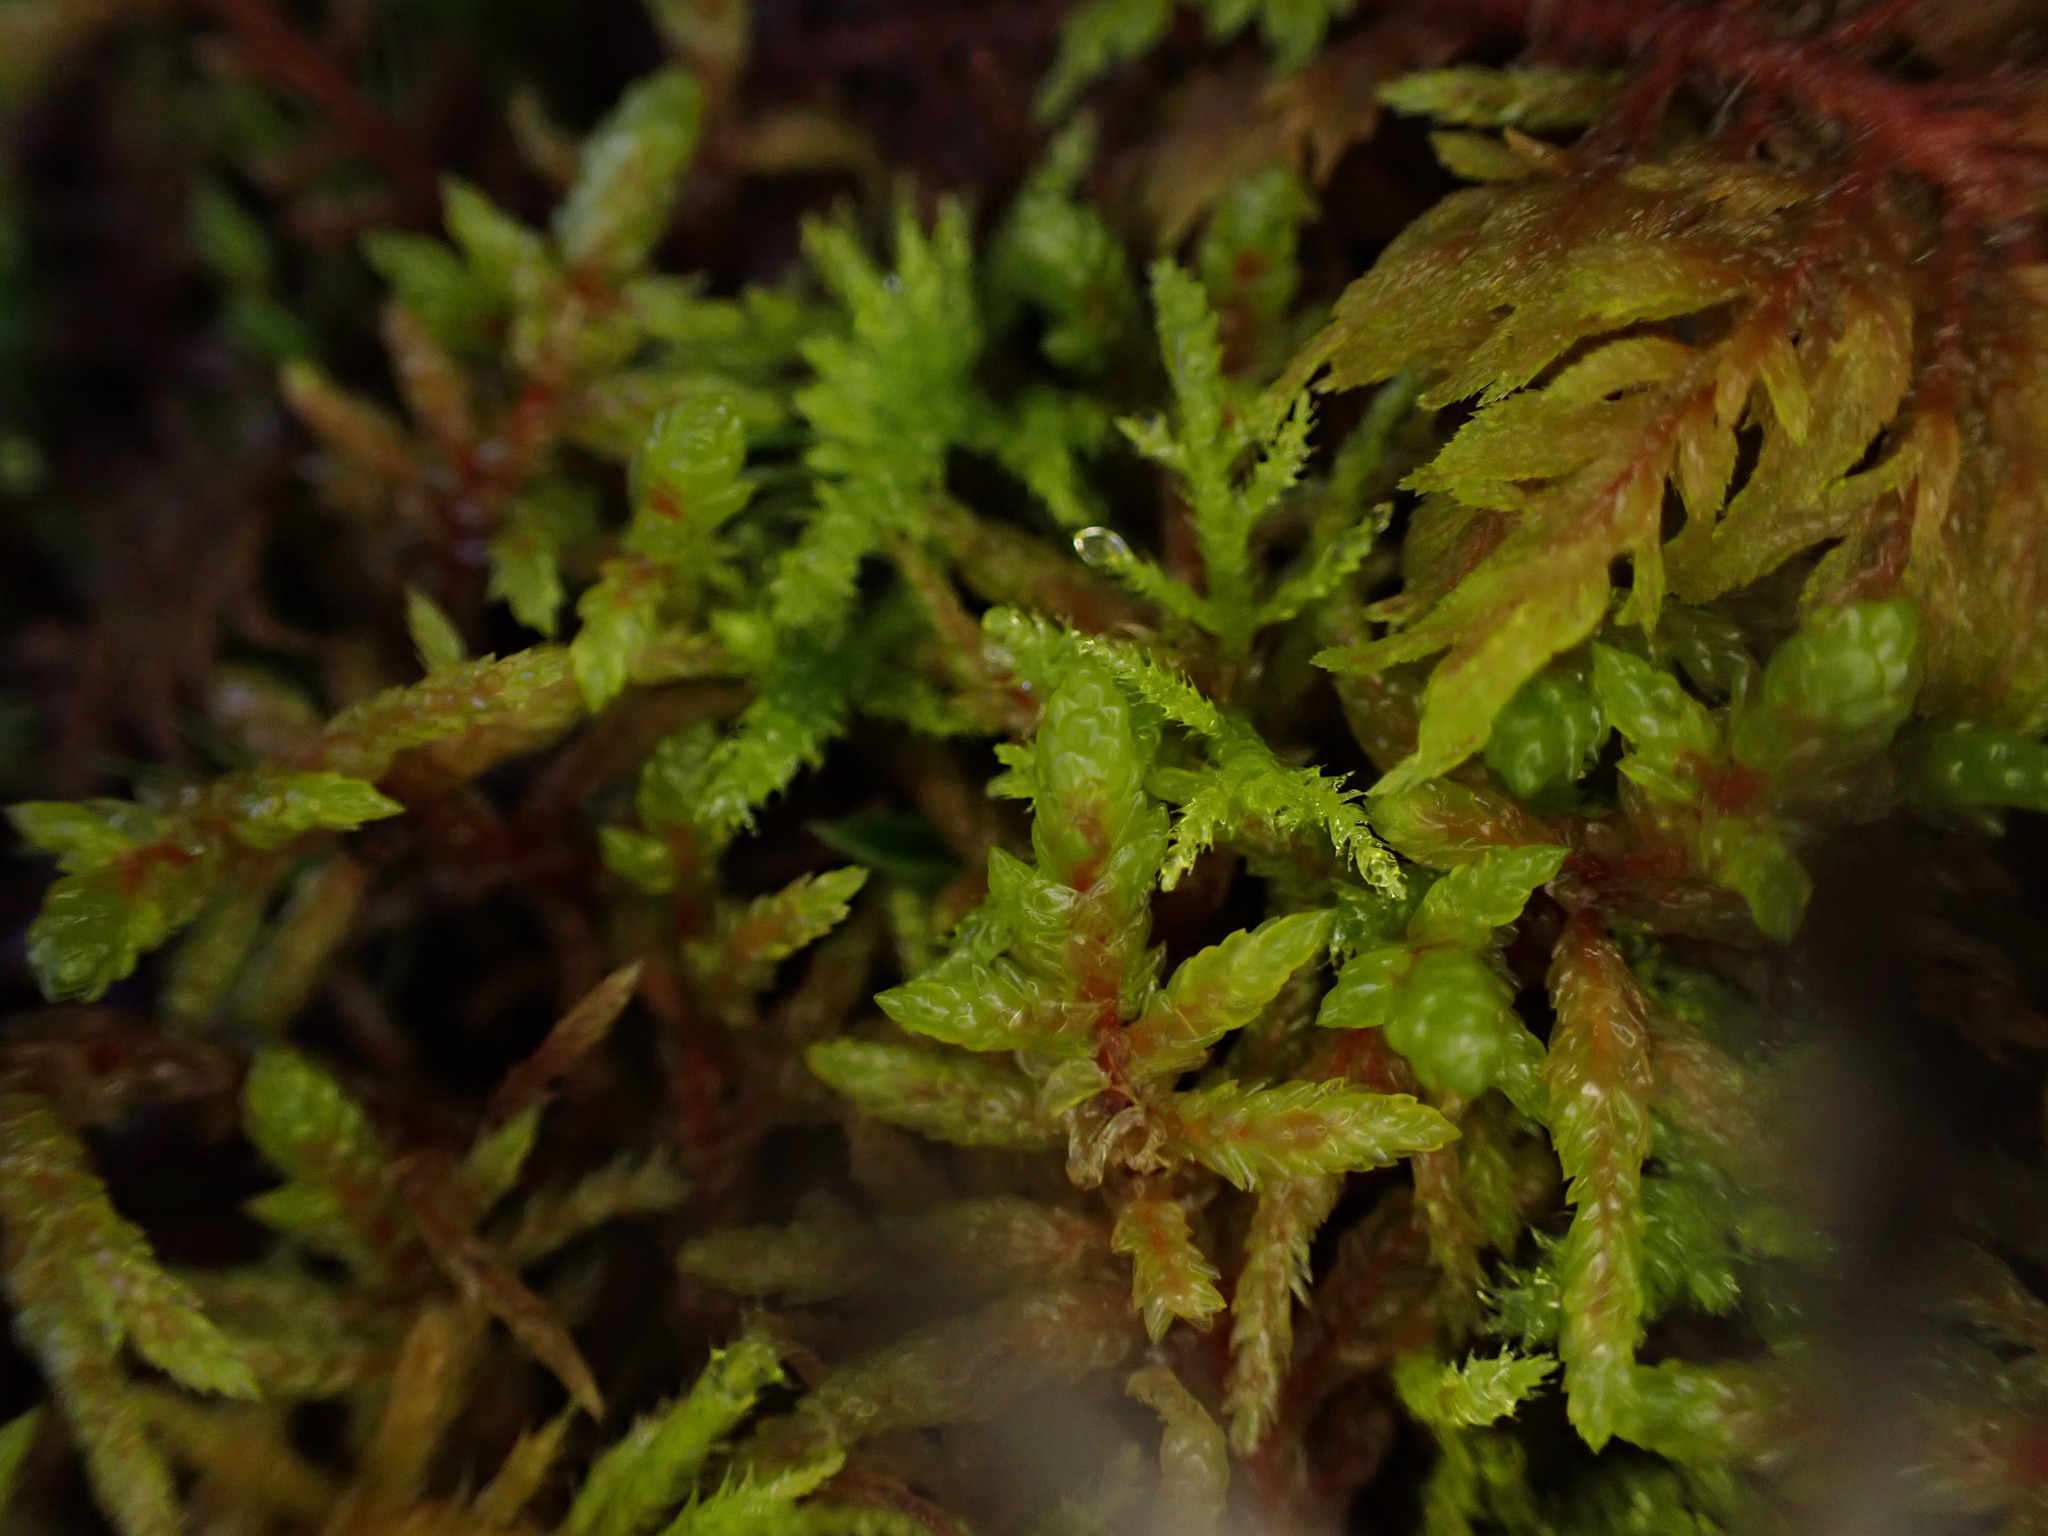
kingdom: Plantae
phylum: Bryophyta
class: Bryopsida
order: Hypnales
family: Hylocomiaceae
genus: Pleurozium
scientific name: Pleurozium schreberi
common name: Red-stemmed feather moss
